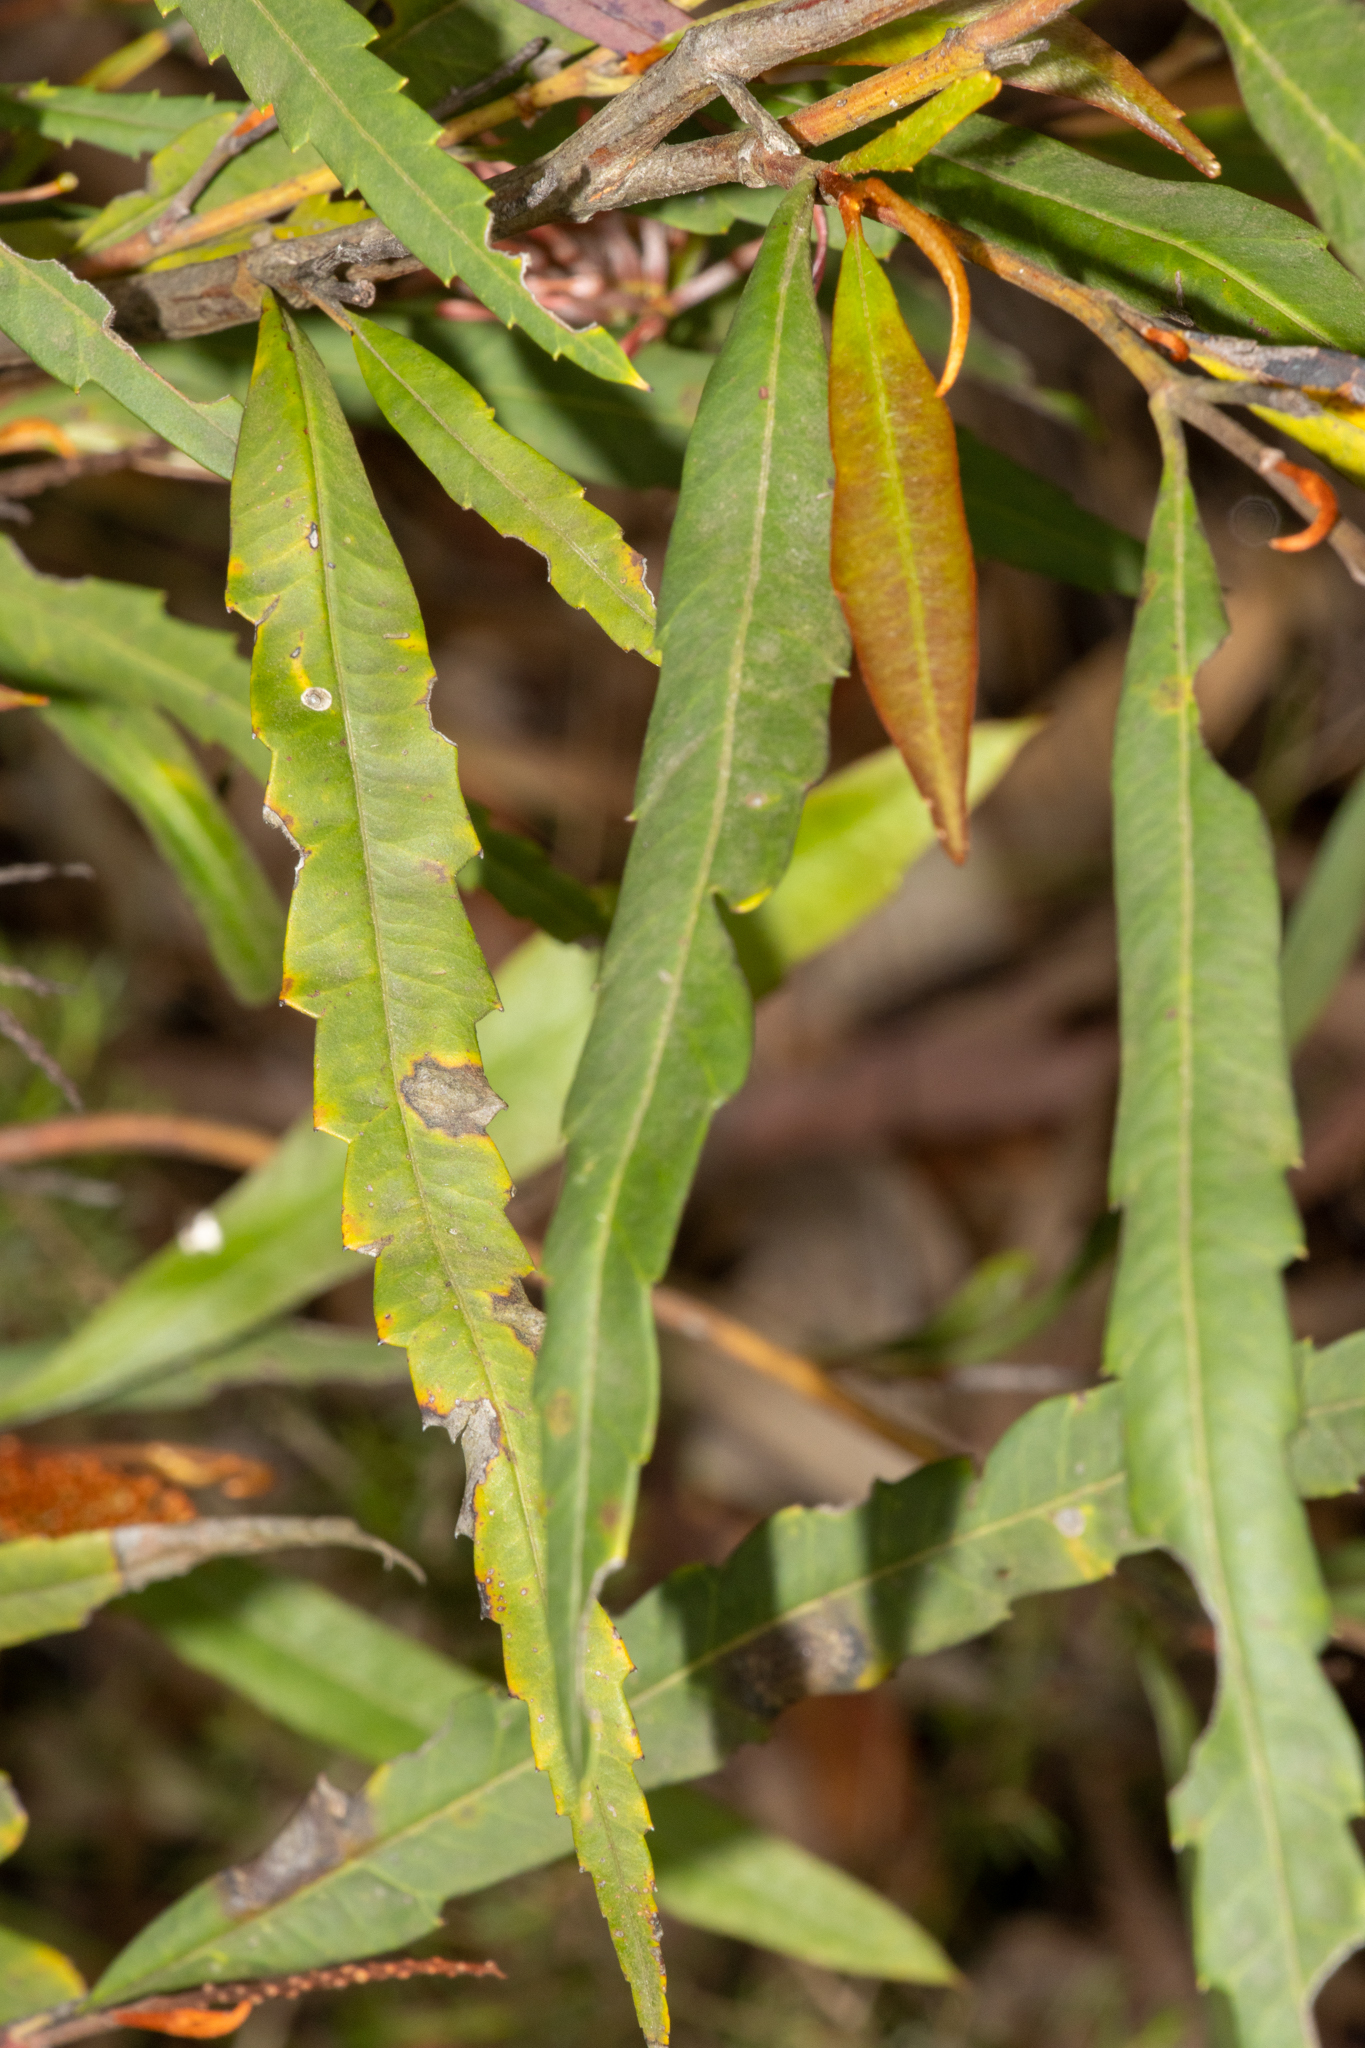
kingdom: Plantae
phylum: Tracheophyta
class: Magnoliopsida
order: Proteales
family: Proteaceae
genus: Grevillea
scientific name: Grevillea longifolia
